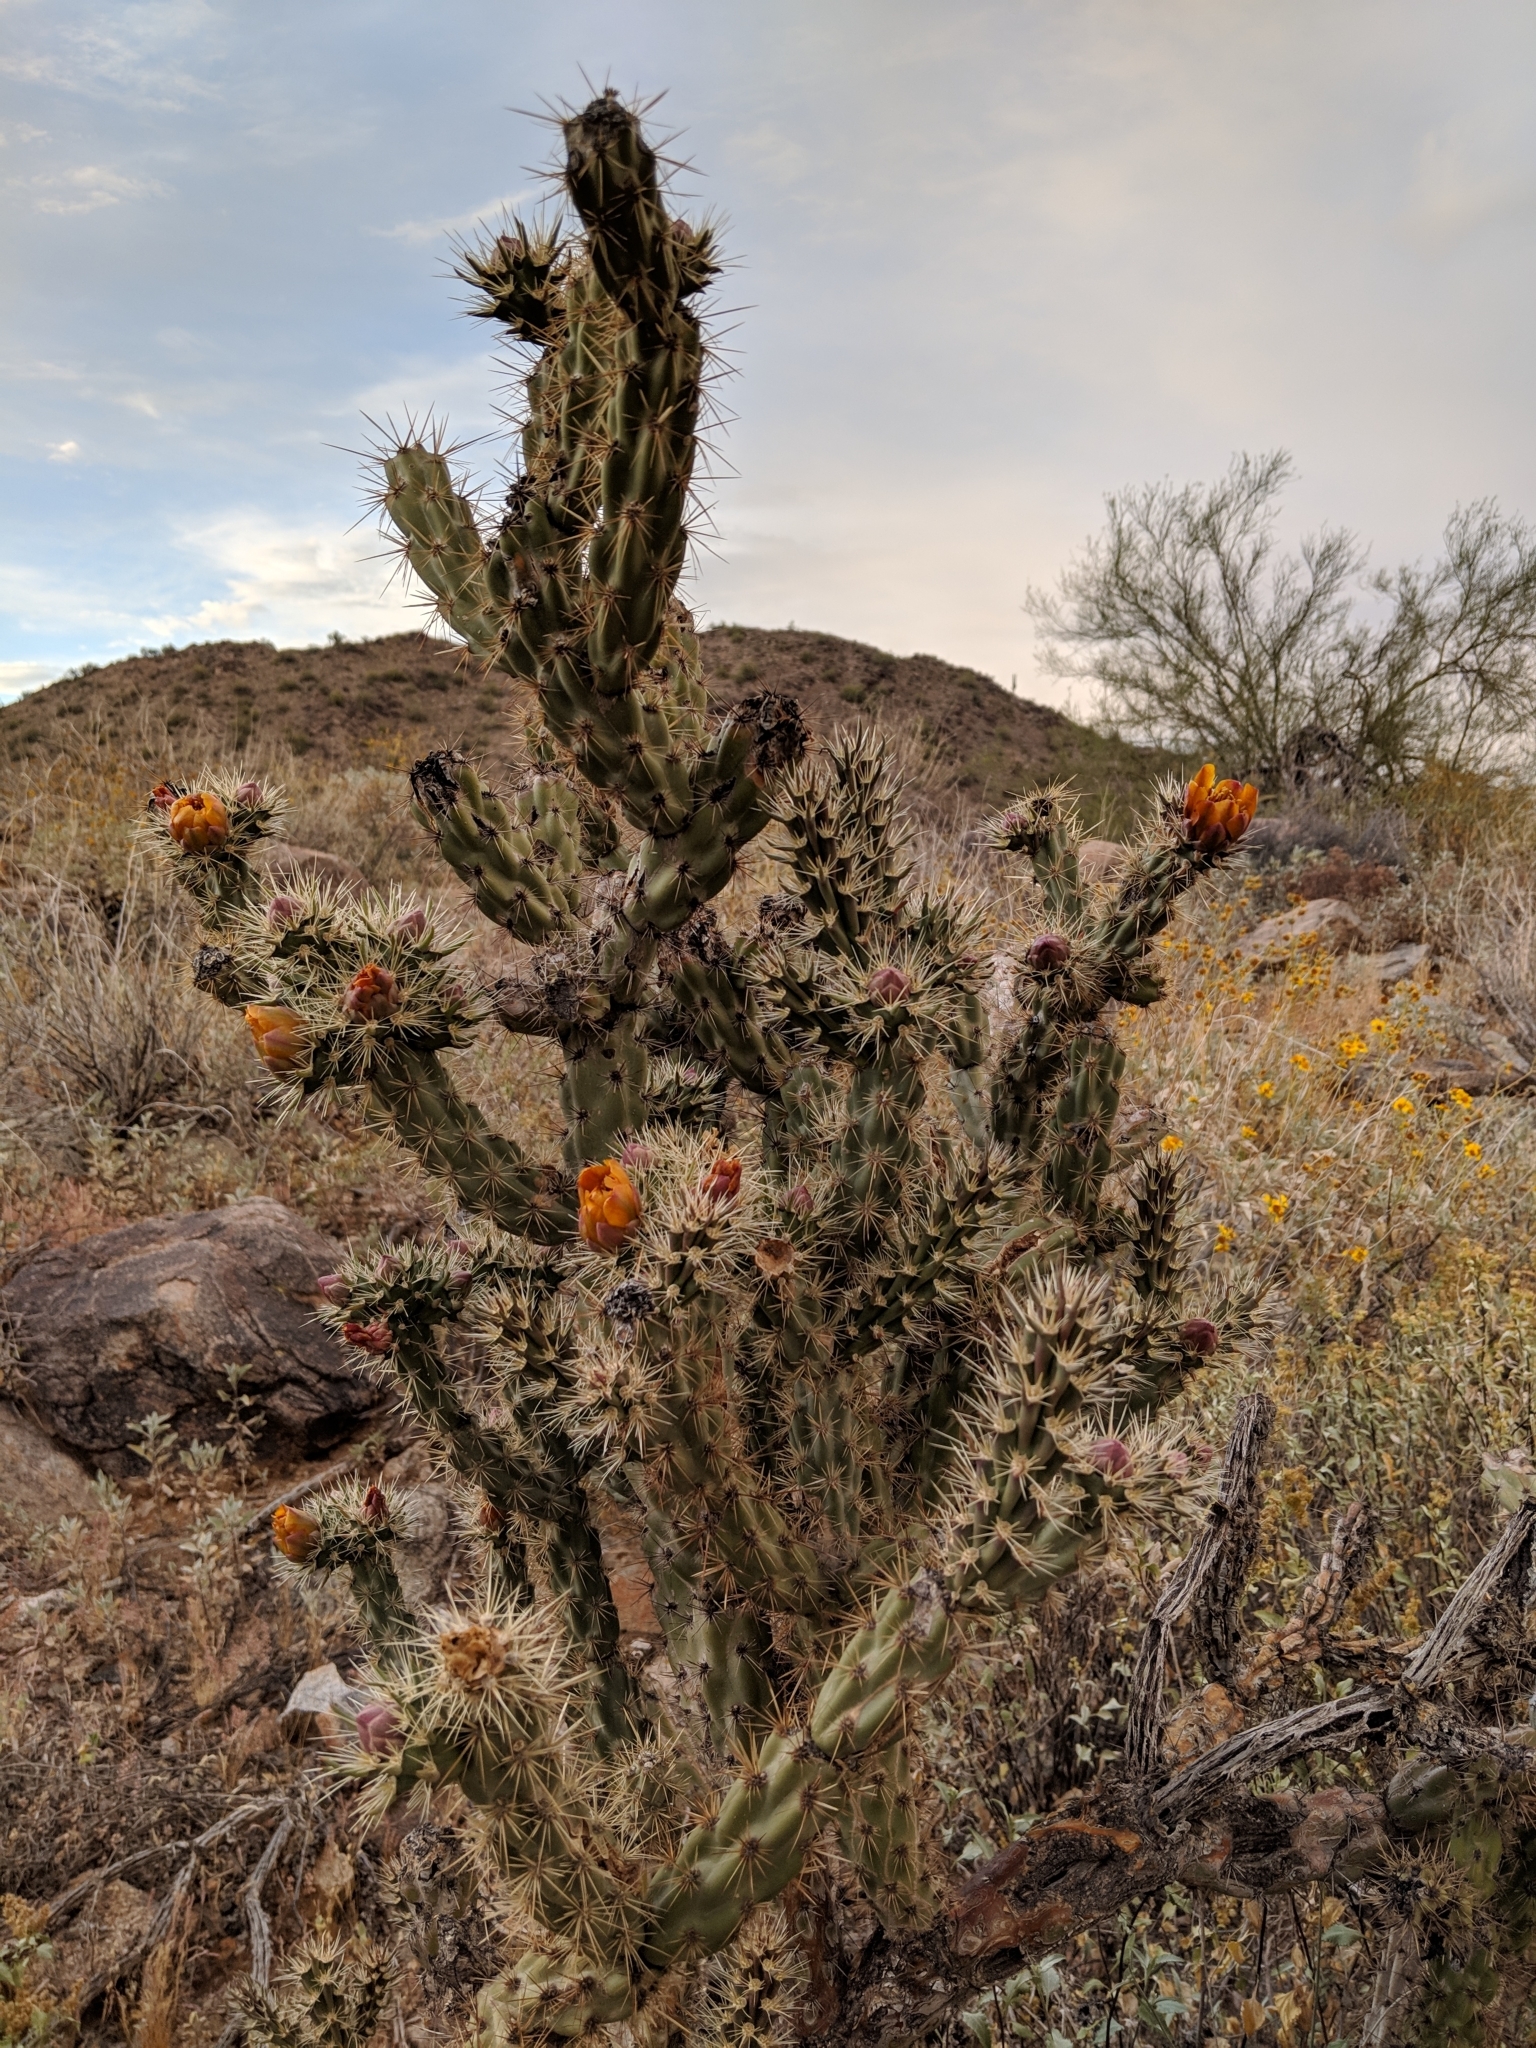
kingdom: Plantae
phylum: Tracheophyta
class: Magnoliopsida
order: Caryophyllales
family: Cactaceae
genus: Cylindropuntia
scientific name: Cylindropuntia acanthocarpa
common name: Buckhorn cholla
